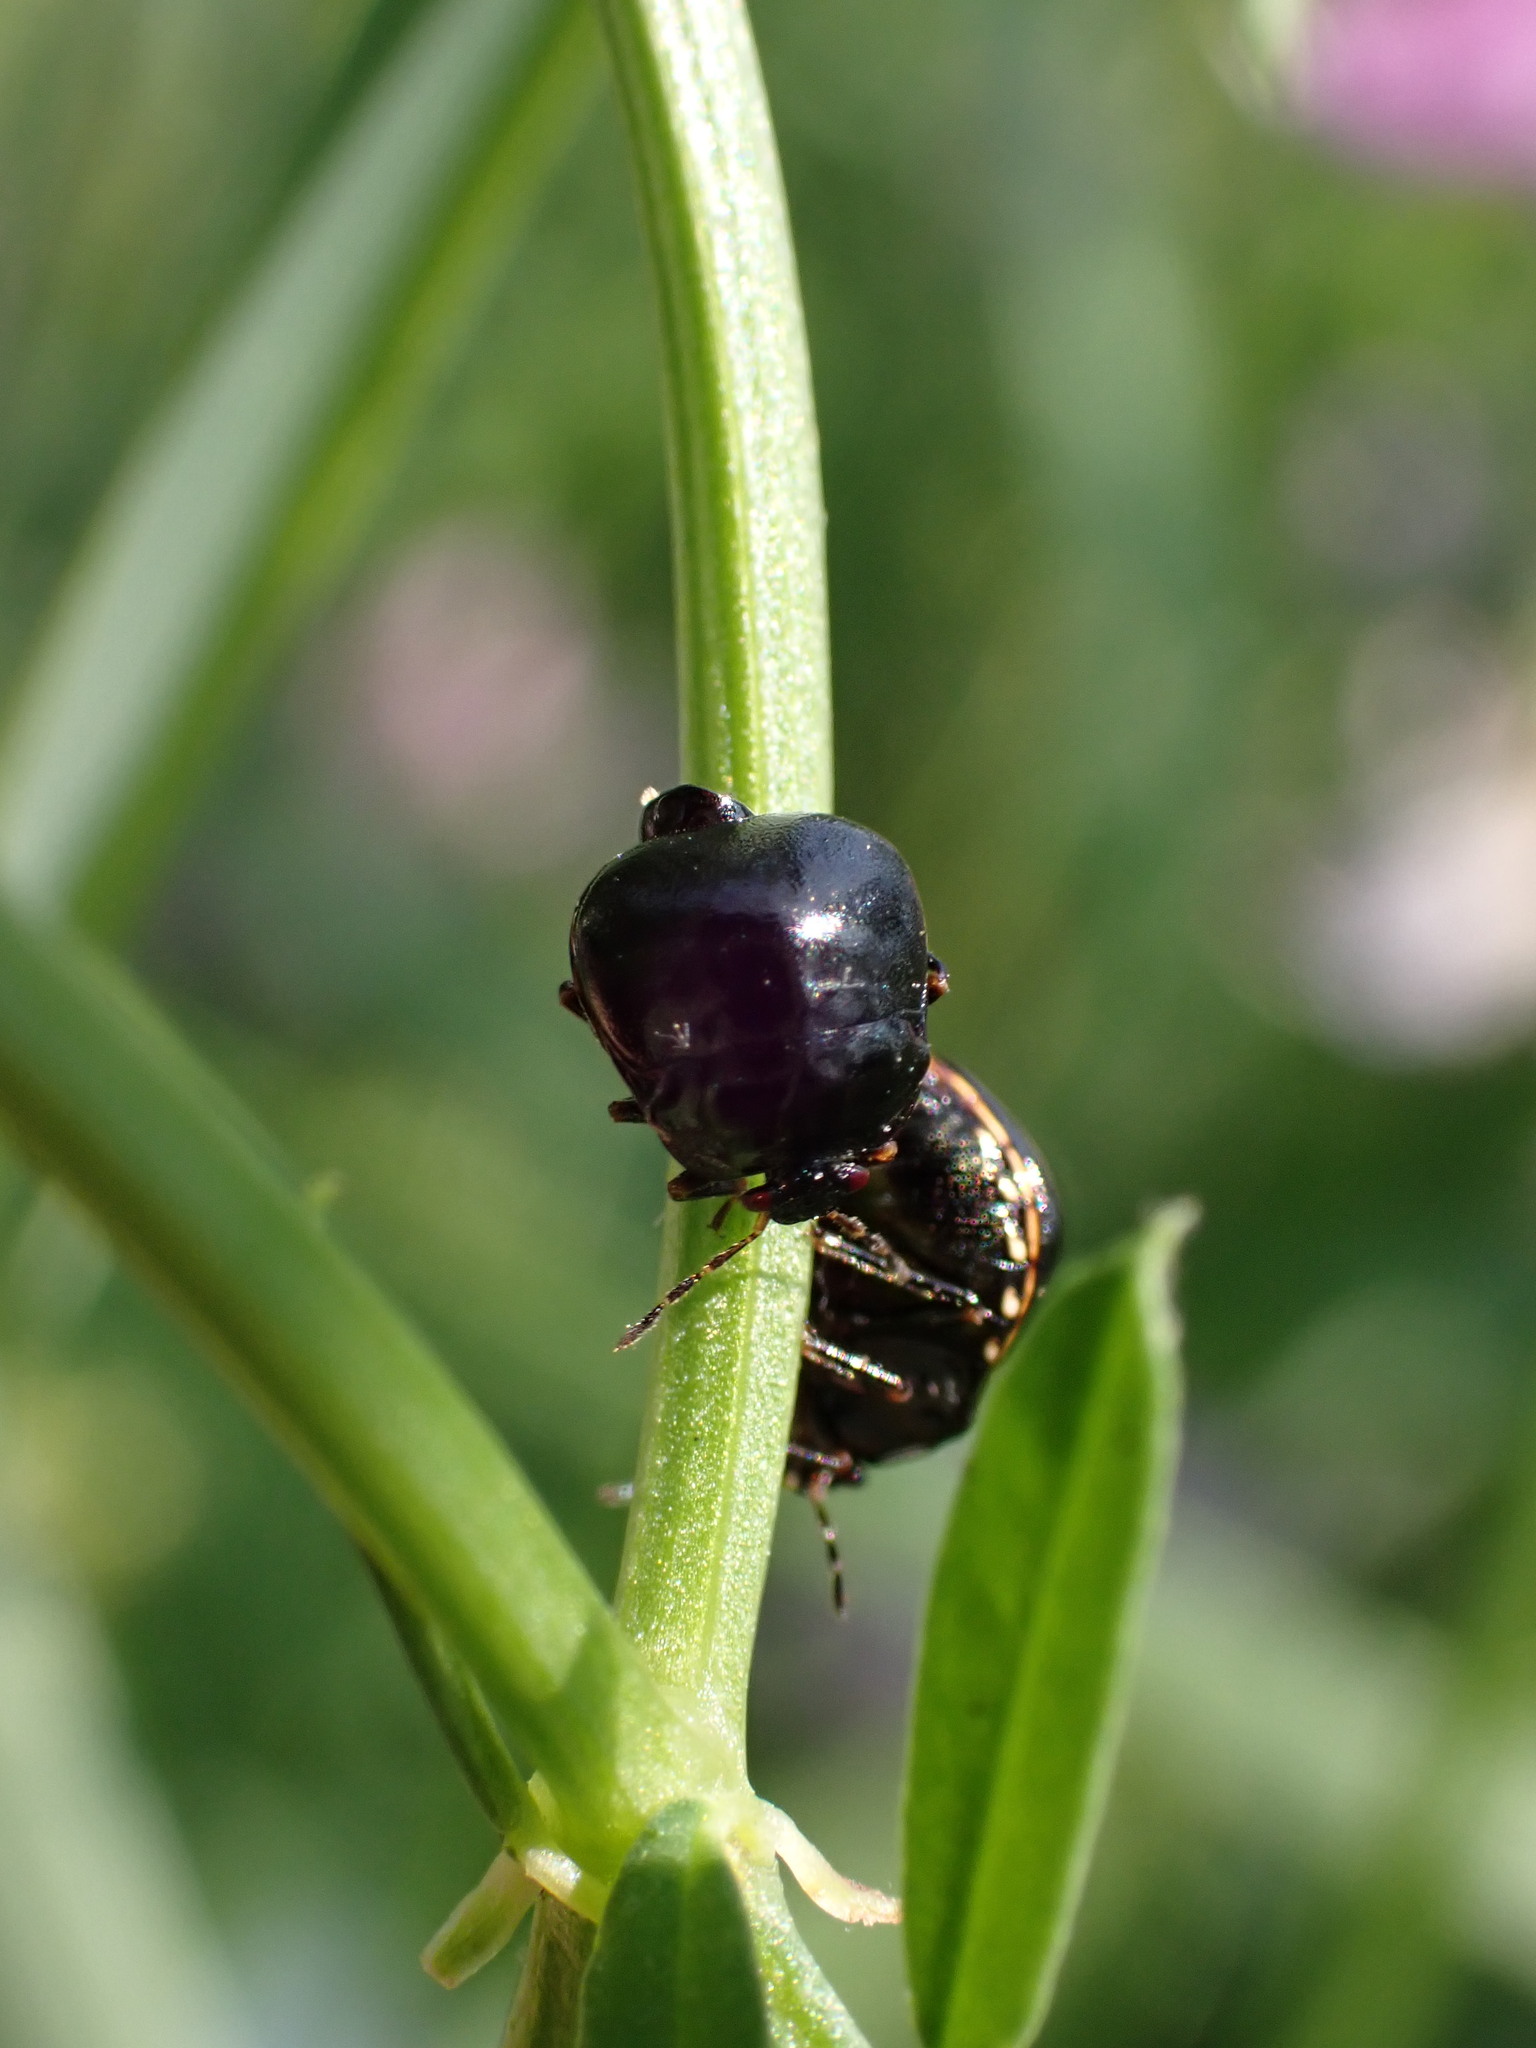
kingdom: Animalia
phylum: Arthropoda
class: Insecta
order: Hemiptera
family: Plataspidae
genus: Coptosoma
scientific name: Coptosoma scutellatum
